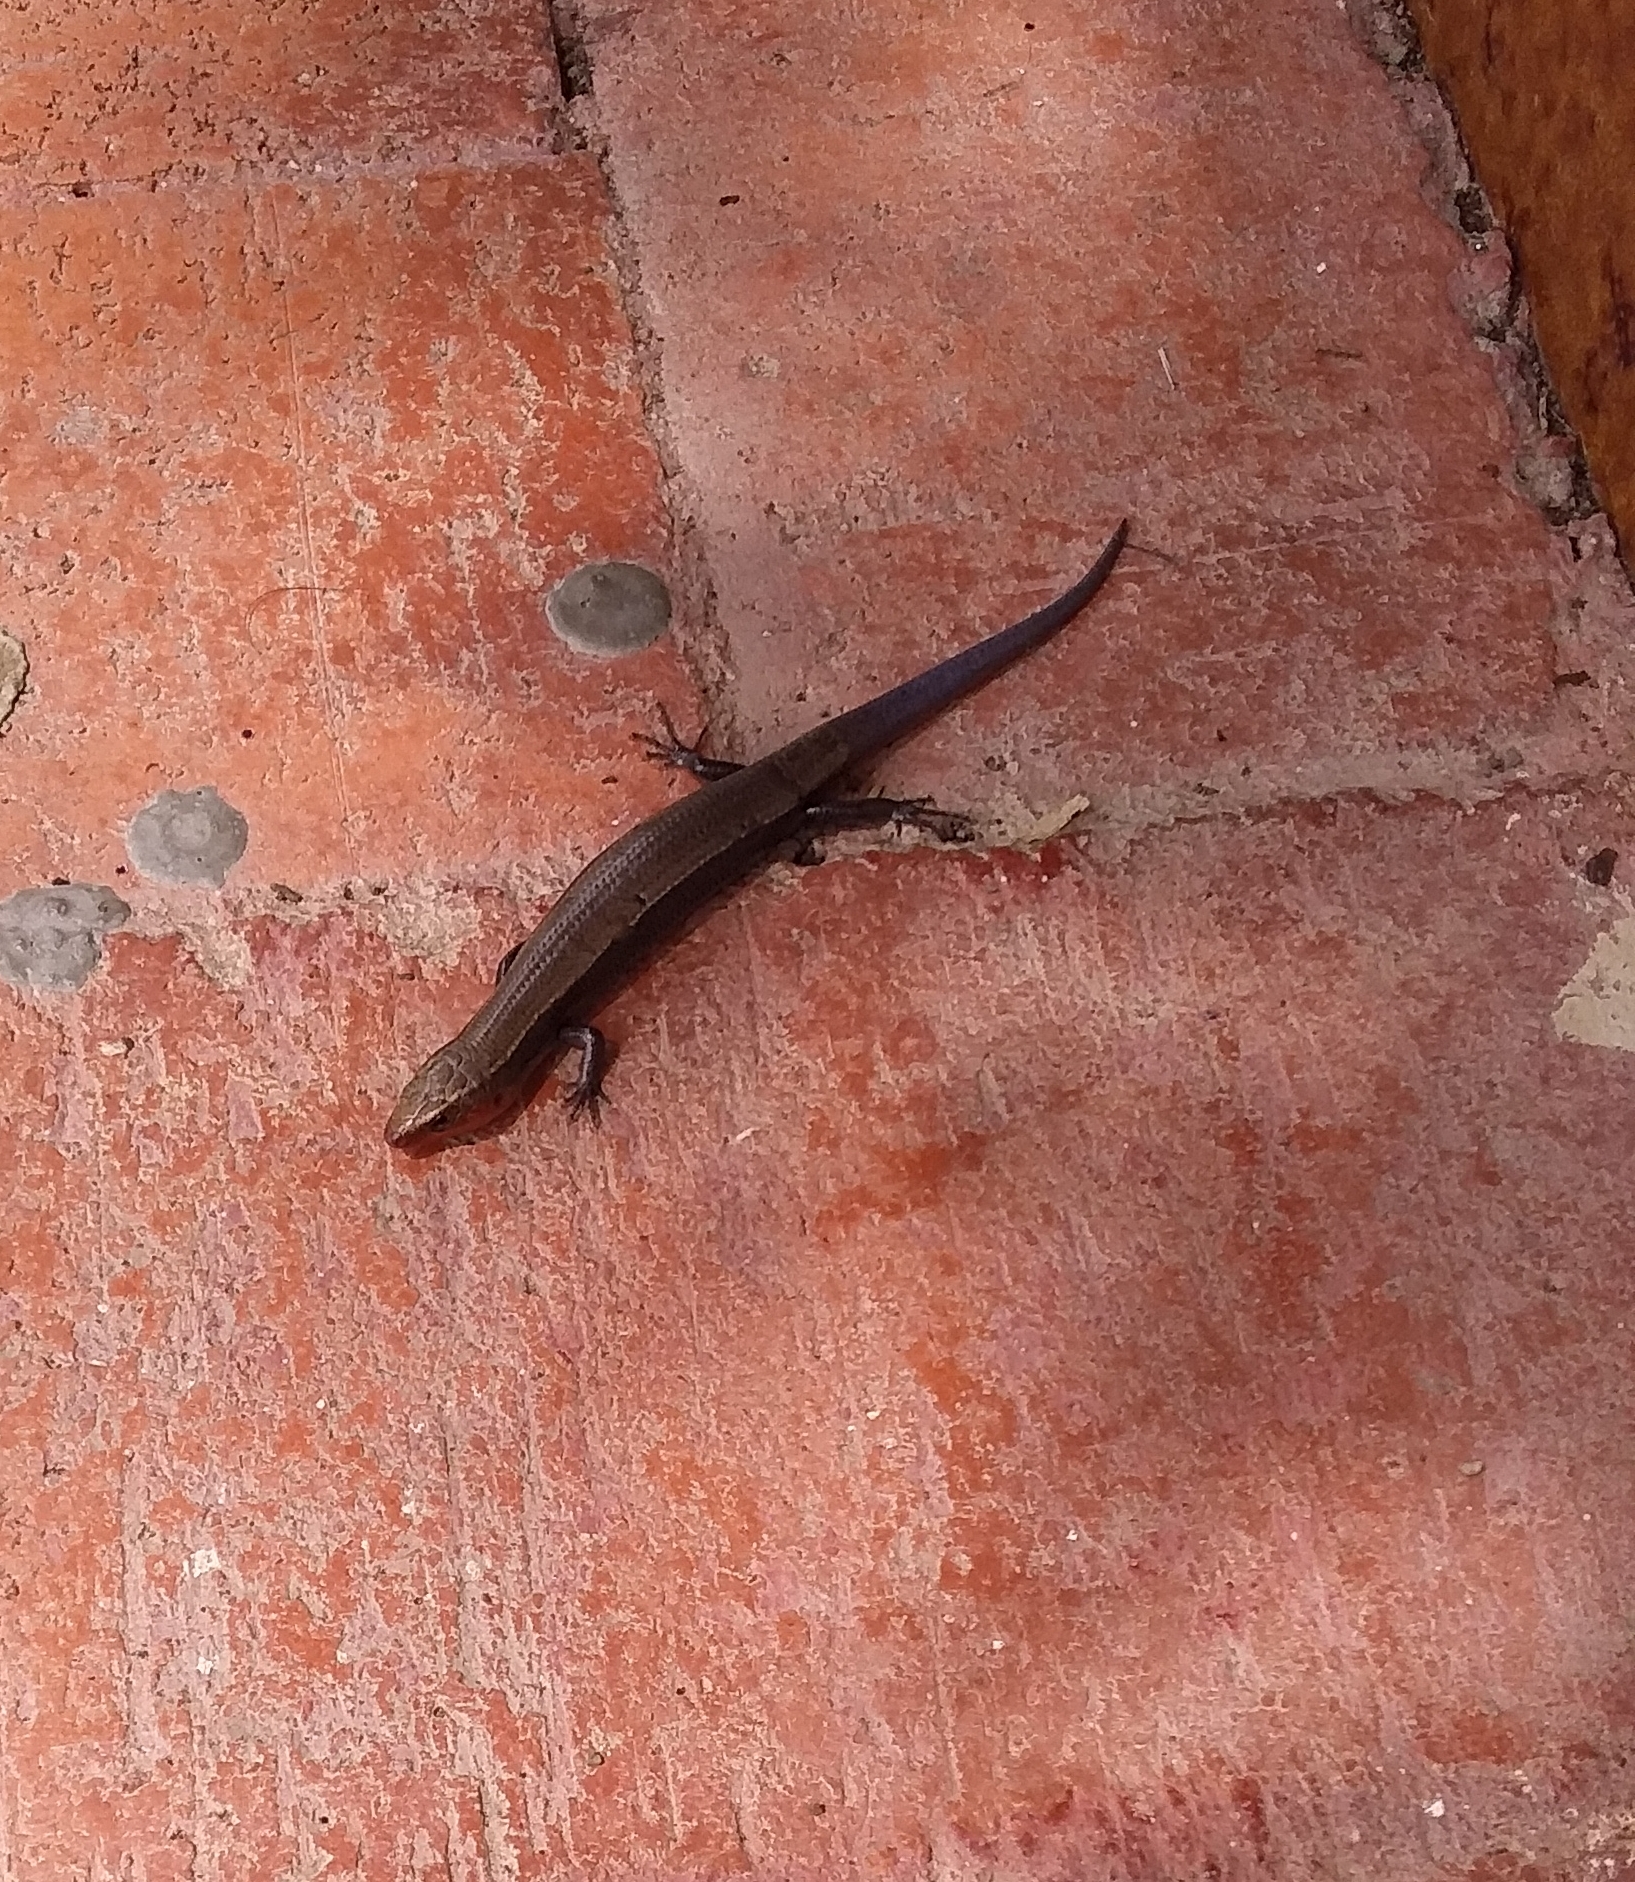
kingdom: Animalia
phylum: Chordata
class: Squamata
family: Scincidae
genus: Plestiodon
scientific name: Plestiodon dicei
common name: Dice's short-nosed skink
